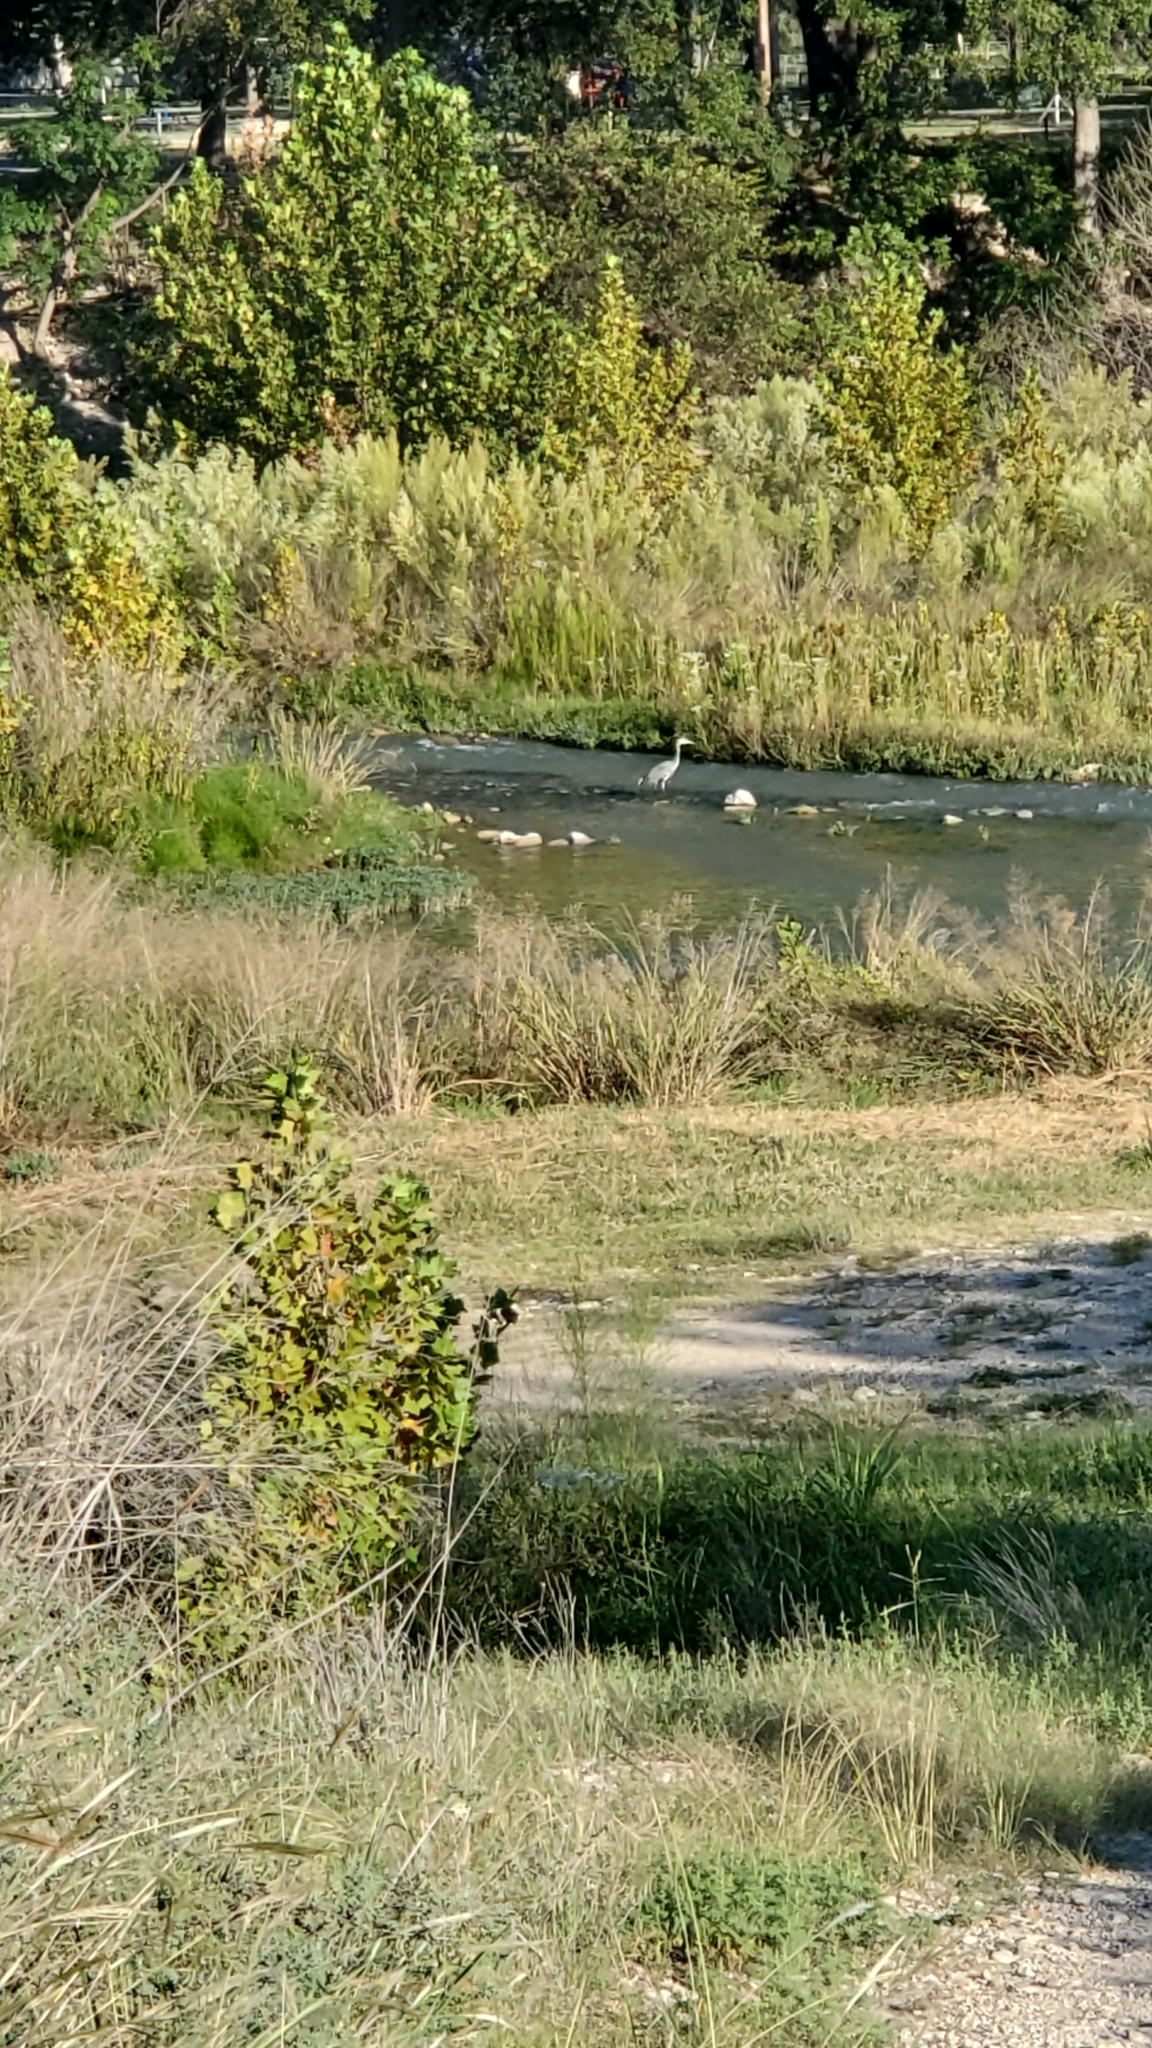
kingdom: Animalia
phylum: Chordata
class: Aves
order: Pelecaniformes
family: Ardeidae
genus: Ardea
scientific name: Ardea herodias
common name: Great blue heron
